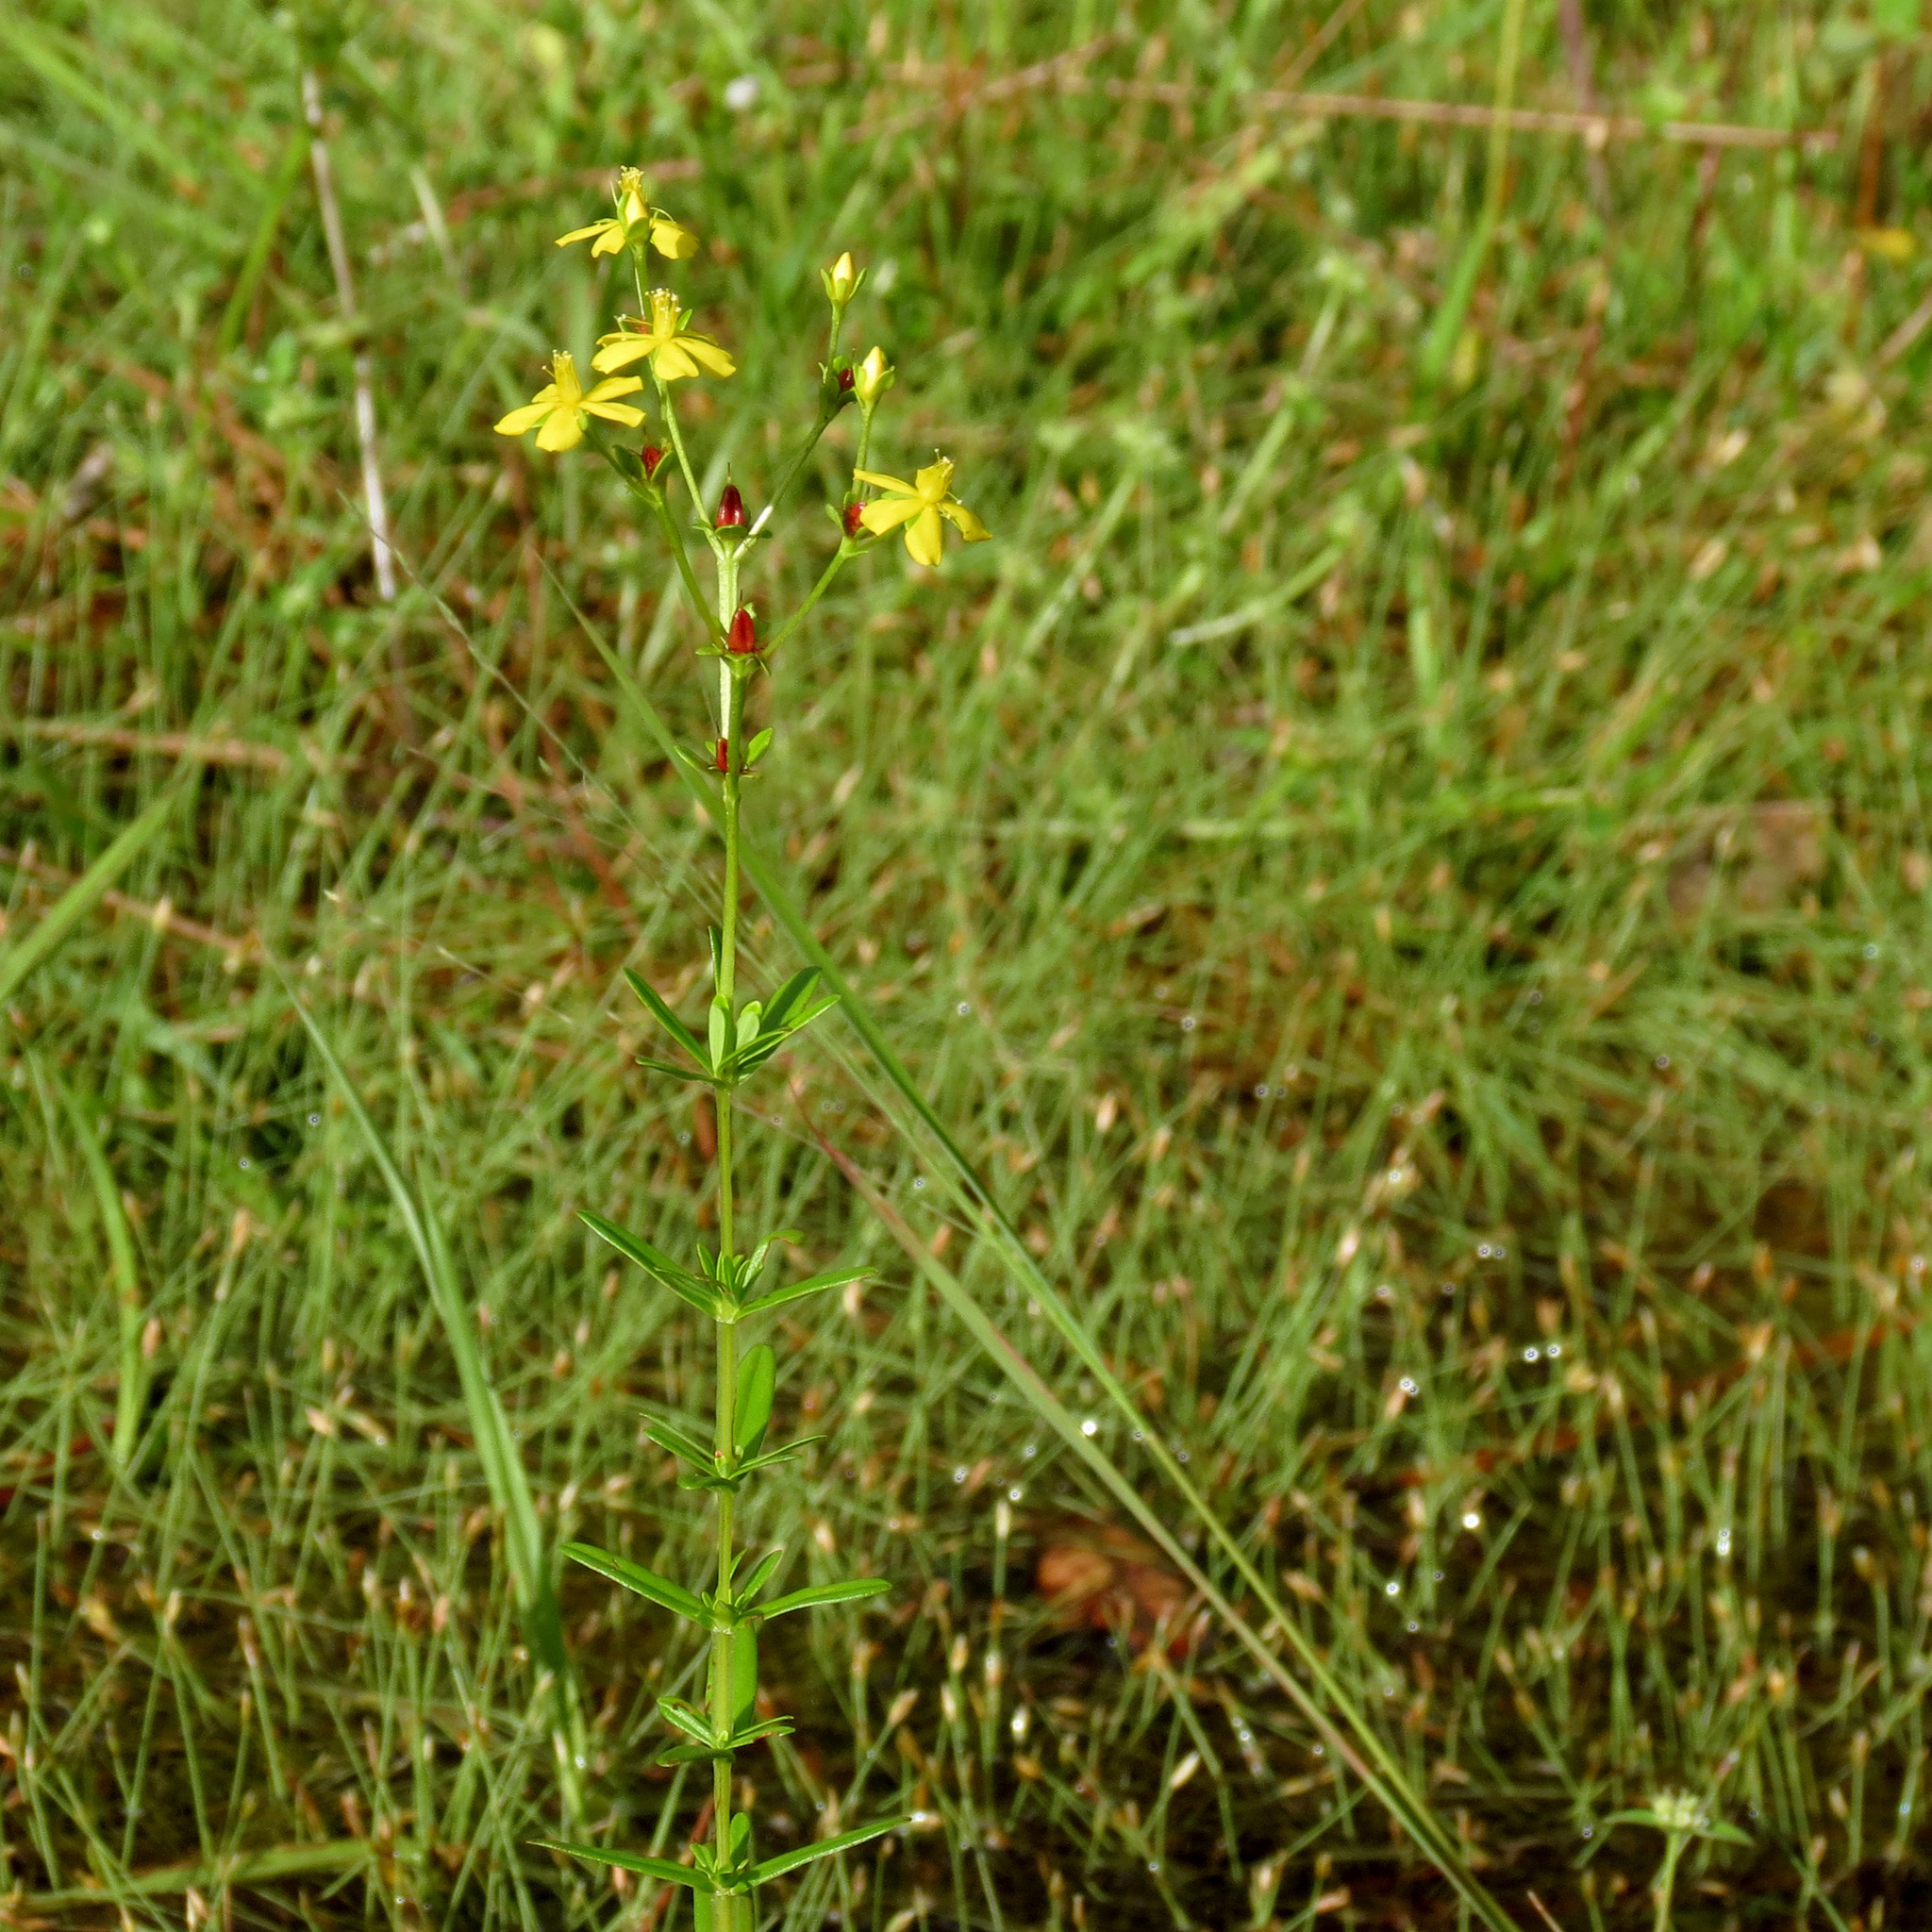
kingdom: Plantae
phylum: Tracheophyta
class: Magnoliopsida
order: Malpighiales
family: Hypericaceae
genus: Hypericum
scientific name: Hypericum cistifolium
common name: Round-pod st. john's-wort
